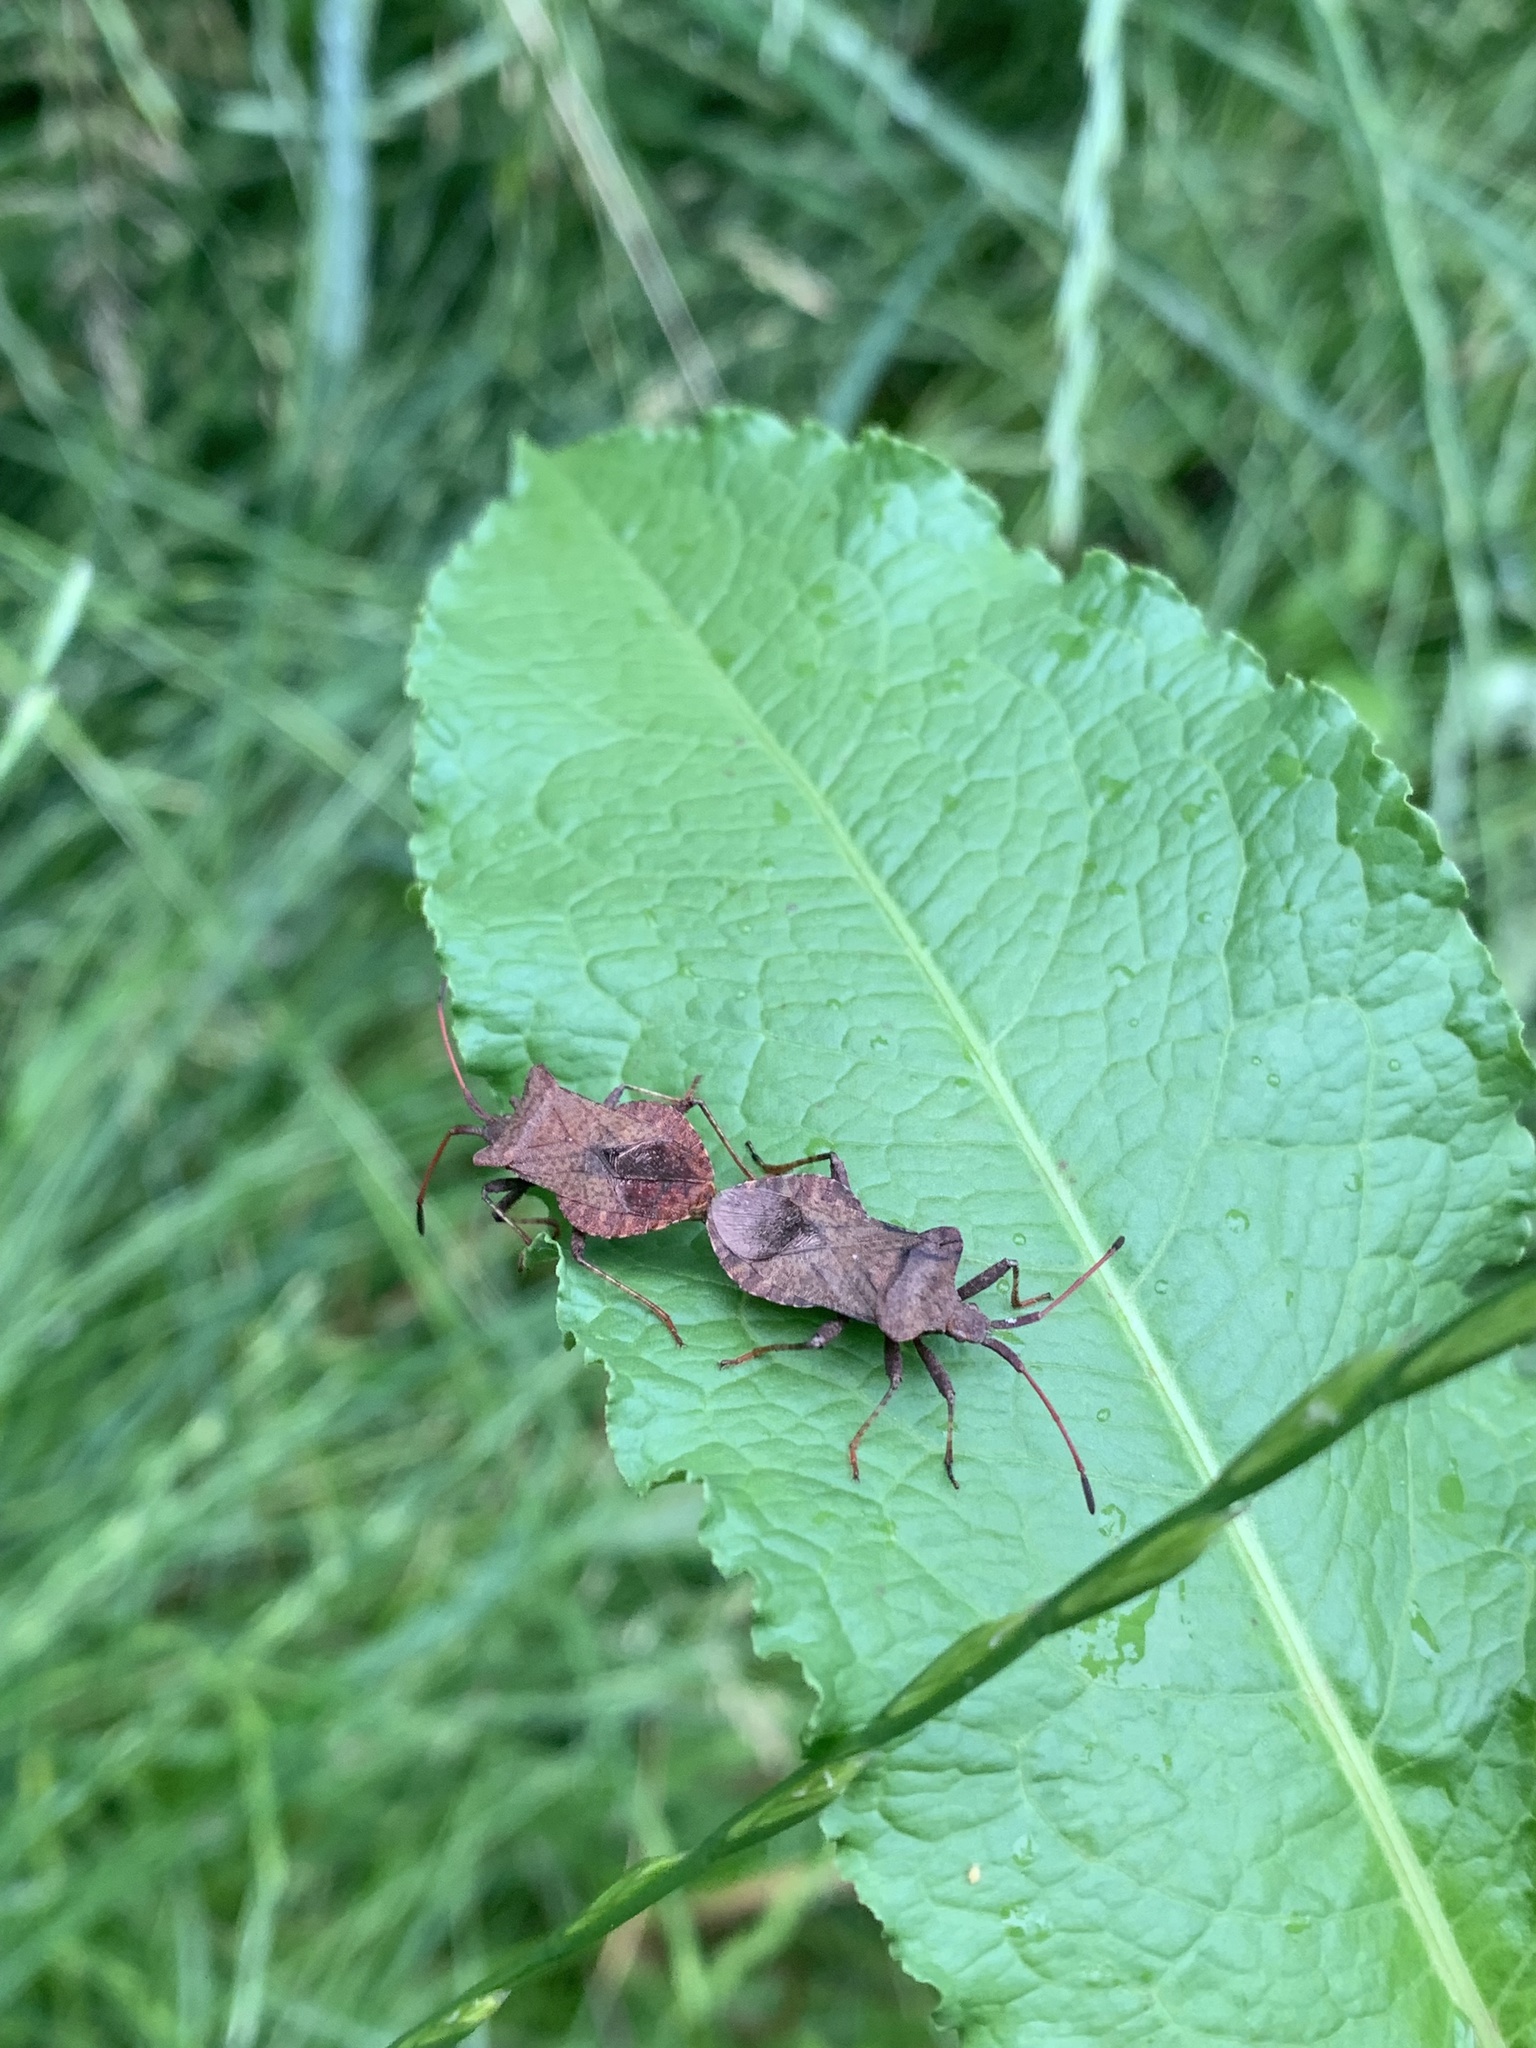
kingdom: Animalia
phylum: Arthropoda
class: Insecta
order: Hemiptera
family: Coreidae
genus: Coreus
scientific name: Coreus marginatus
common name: Dock bug
